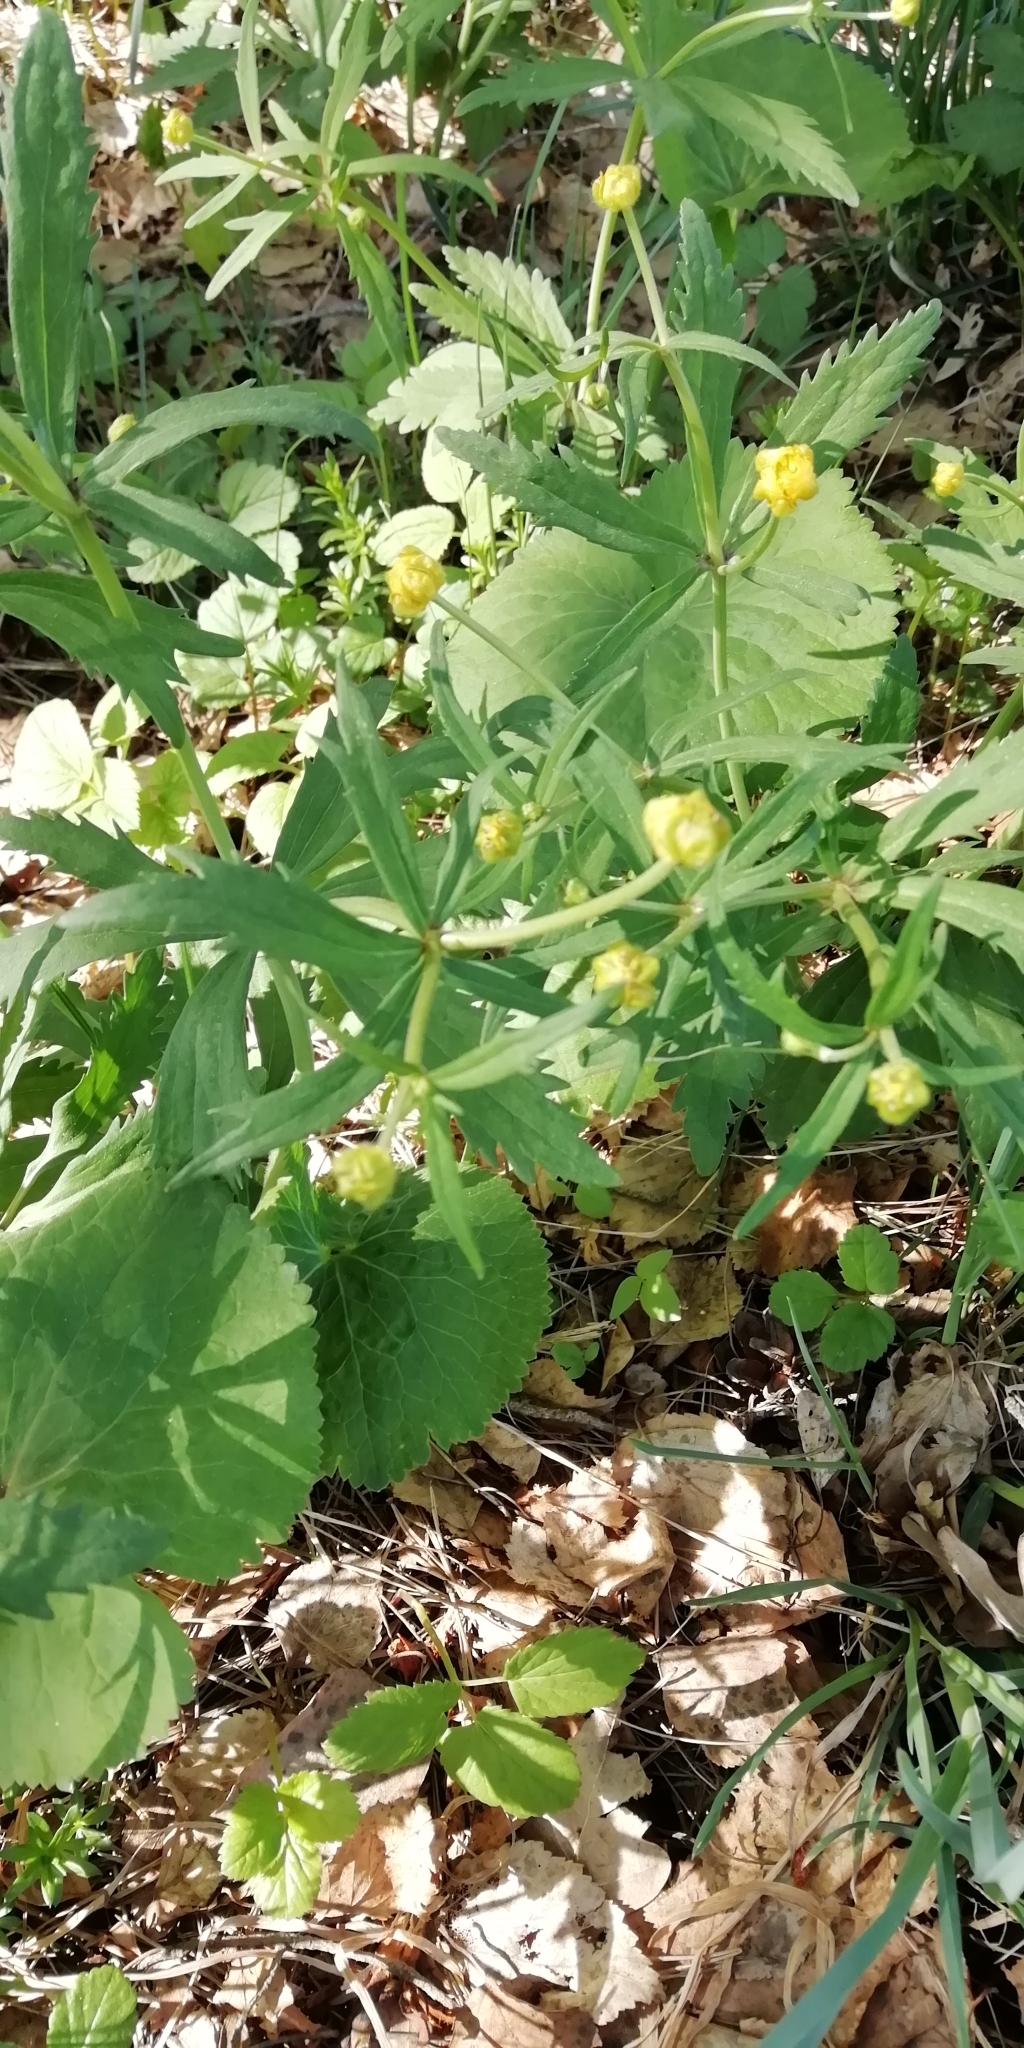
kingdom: Plantae
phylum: Tracheophyta
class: Magnoliopsida
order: Ranunculales
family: Ranunculaceae
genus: Ranunculus
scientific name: Ranunculus cassubicus
